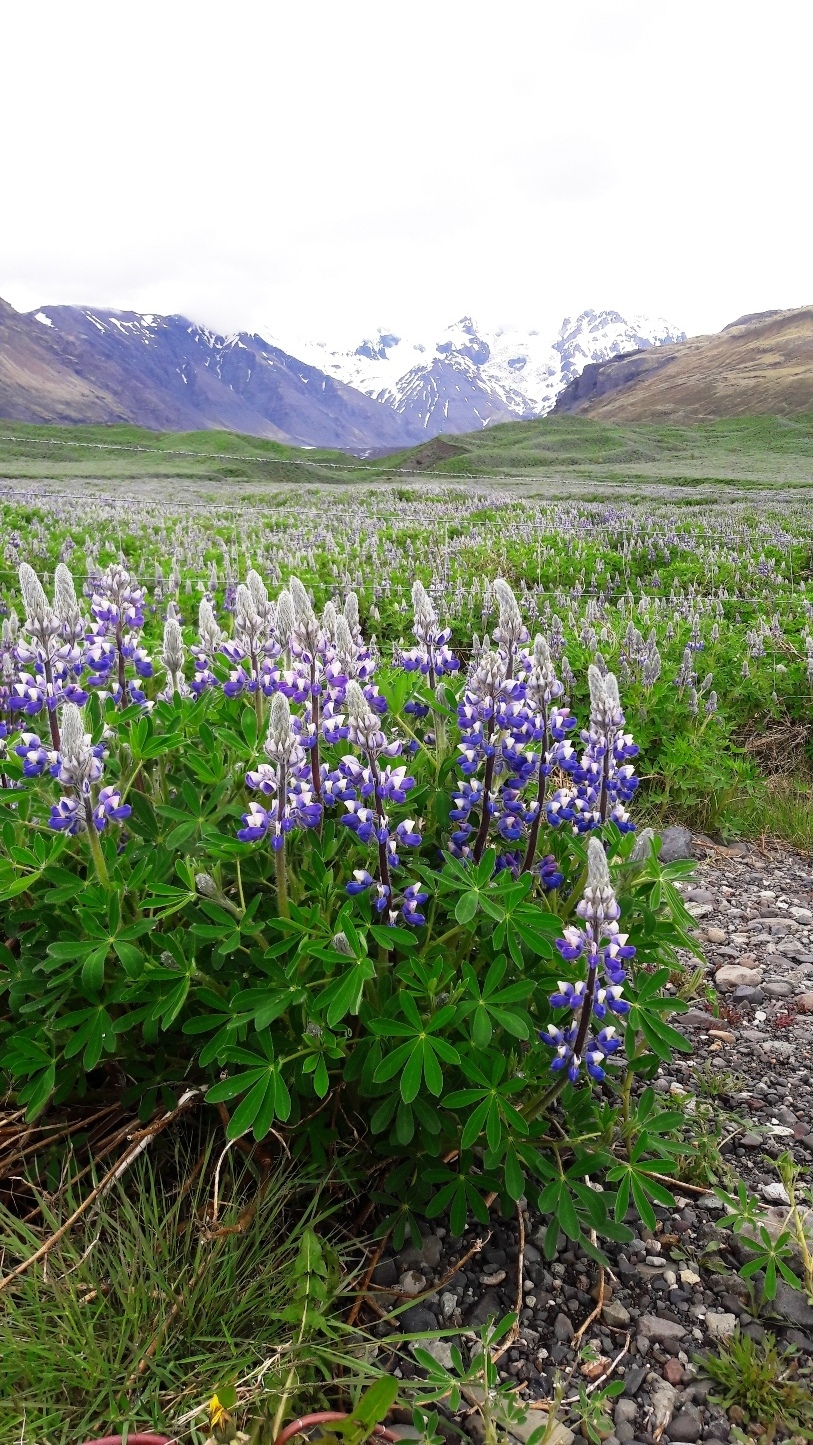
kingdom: Plantae
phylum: Tracheophyta
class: Magnoliopsida
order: Fabales
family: Fabaceae
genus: Lupinus
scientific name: Lupinus nootkatensis
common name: Nootka lupine
